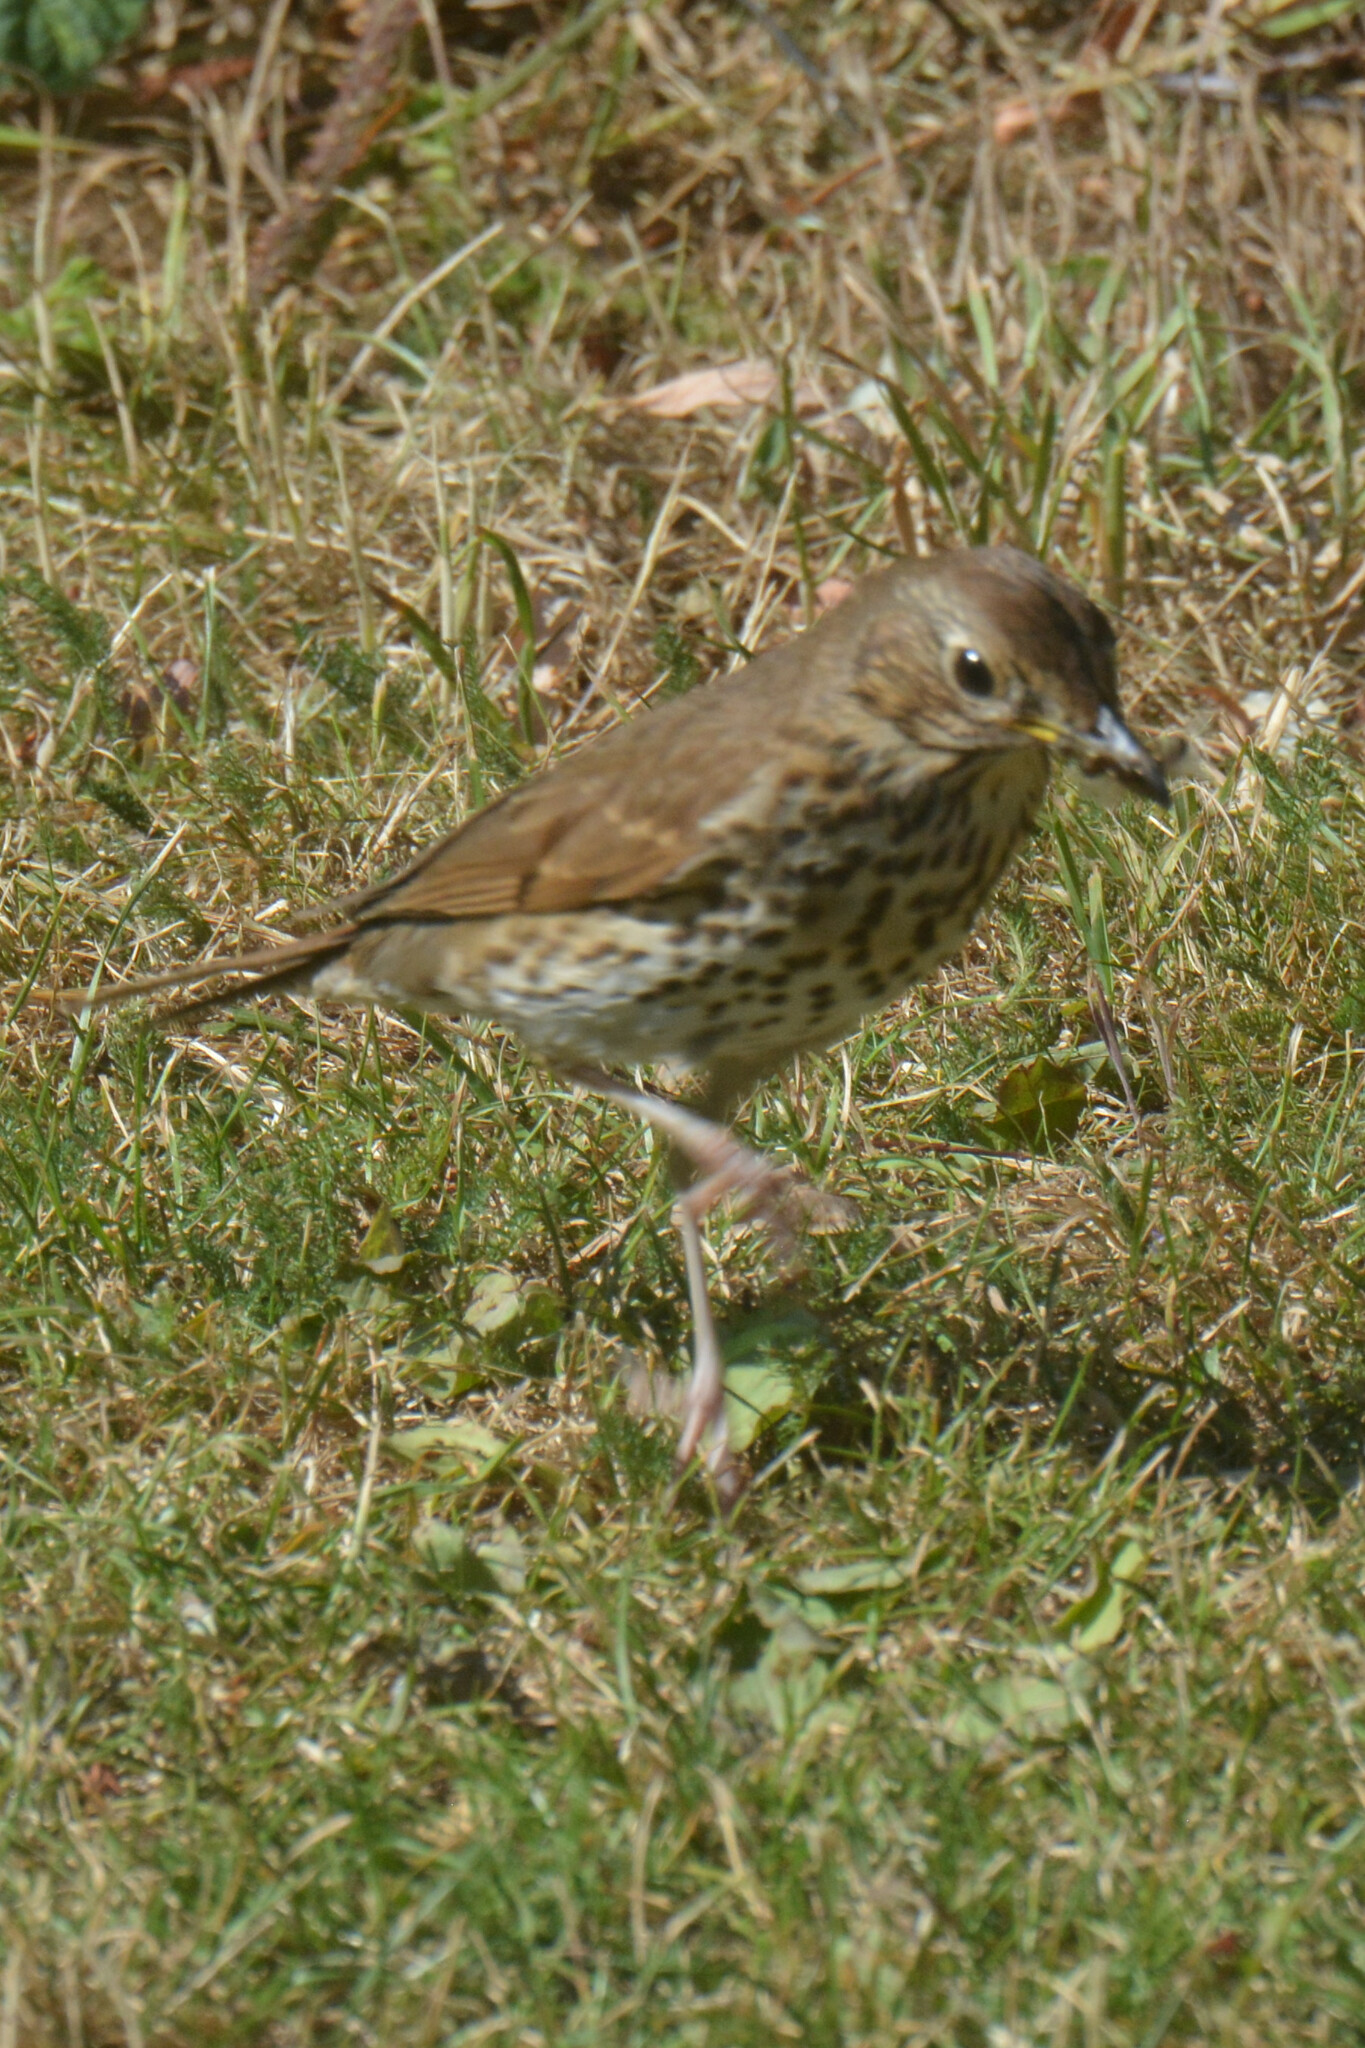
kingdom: Animalia
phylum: Chordata
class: Aves
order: Passeriformes
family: Turdidae
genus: Turdus
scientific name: Turdus philomelos
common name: Song thrush
